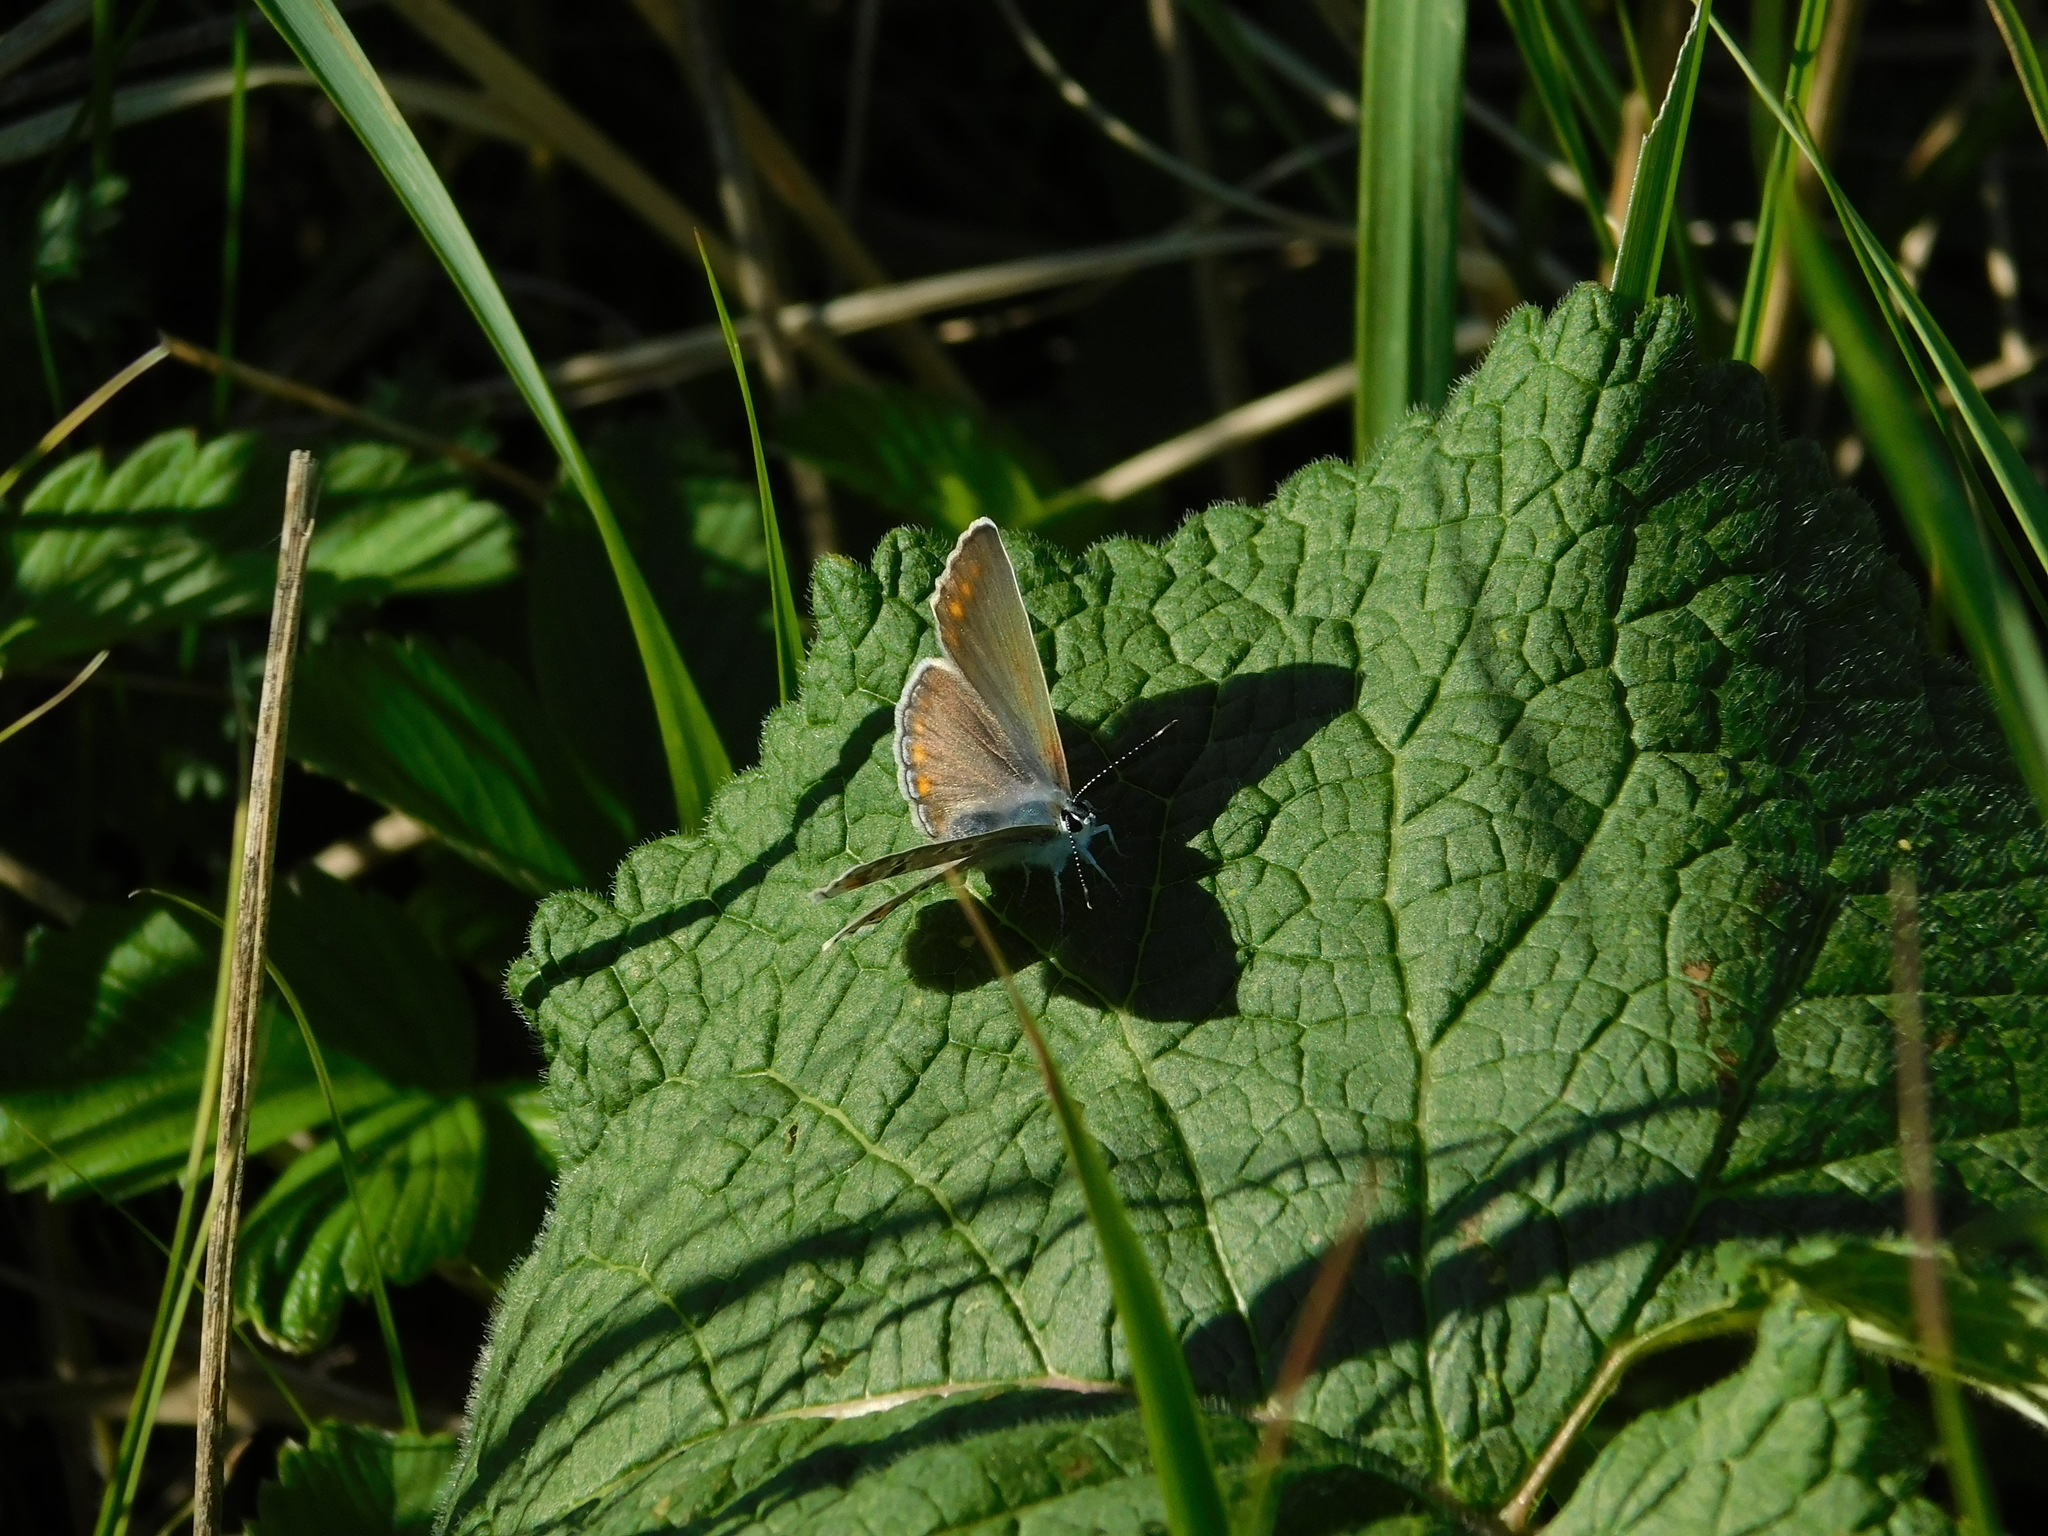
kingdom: Animalia
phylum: Arthropoda
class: Insecta
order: Lepidoptera
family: Lycaenidae
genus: Polyommatus
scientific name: Polyommatus icarus
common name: Common blue
